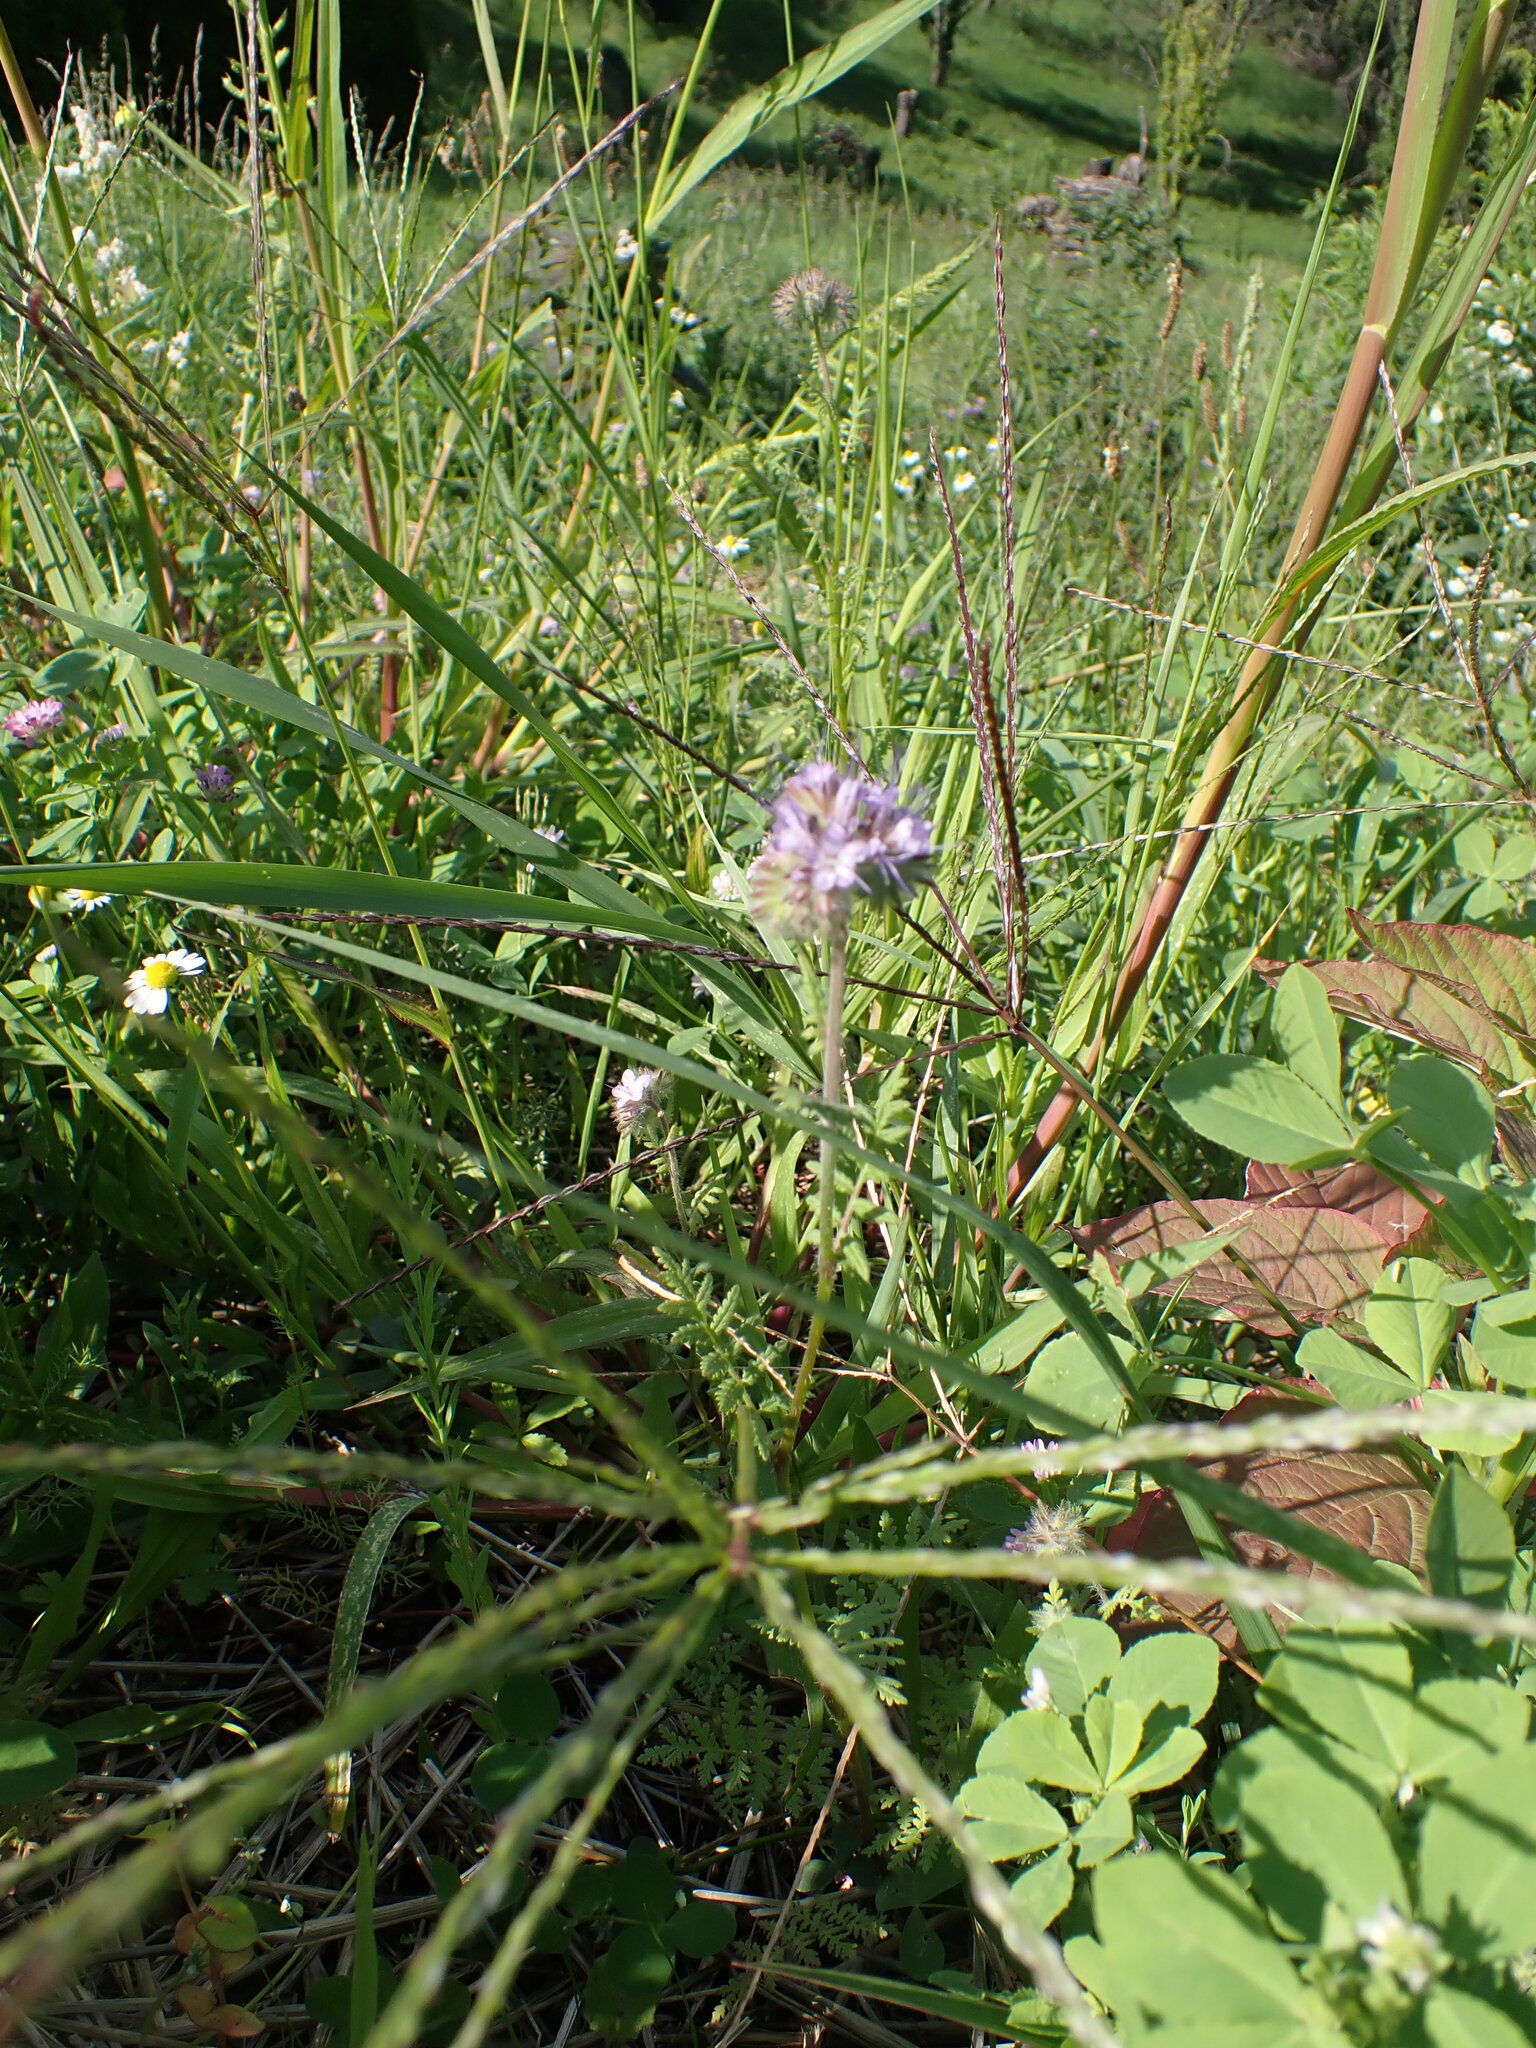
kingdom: Plantae
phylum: Tracheophyta
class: Magnoliopsida
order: Asterales
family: Asteraceae
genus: Centaurea
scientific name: Centaurea cyanus
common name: Cornflower
